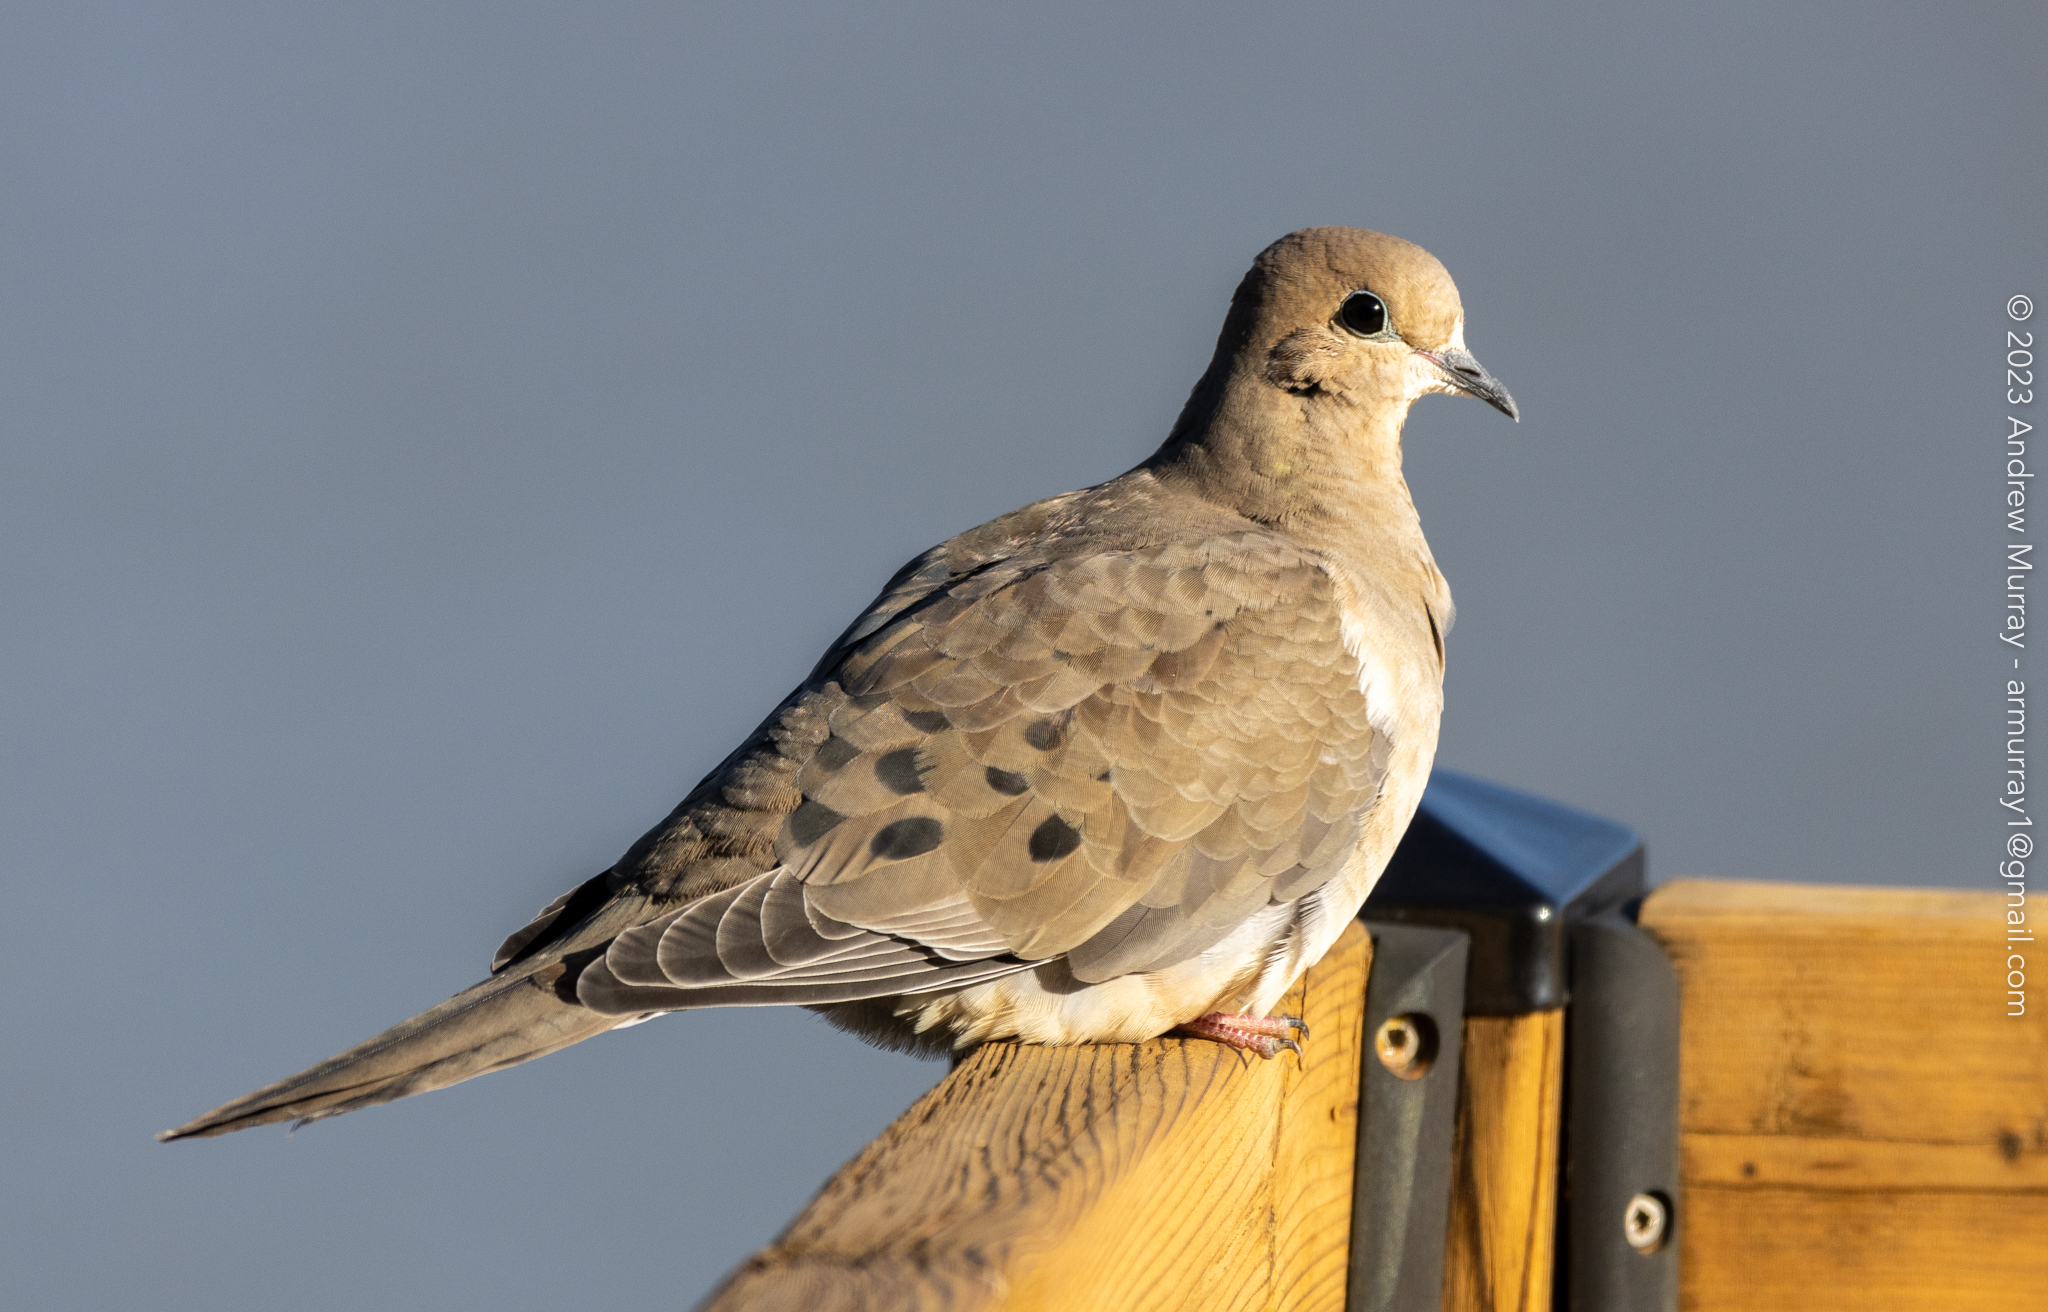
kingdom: Animalia
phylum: Chordata
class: Aves
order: Columbiformes
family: Columbidae
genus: Zenaida
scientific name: Zenaida macroura
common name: Mourning dove
